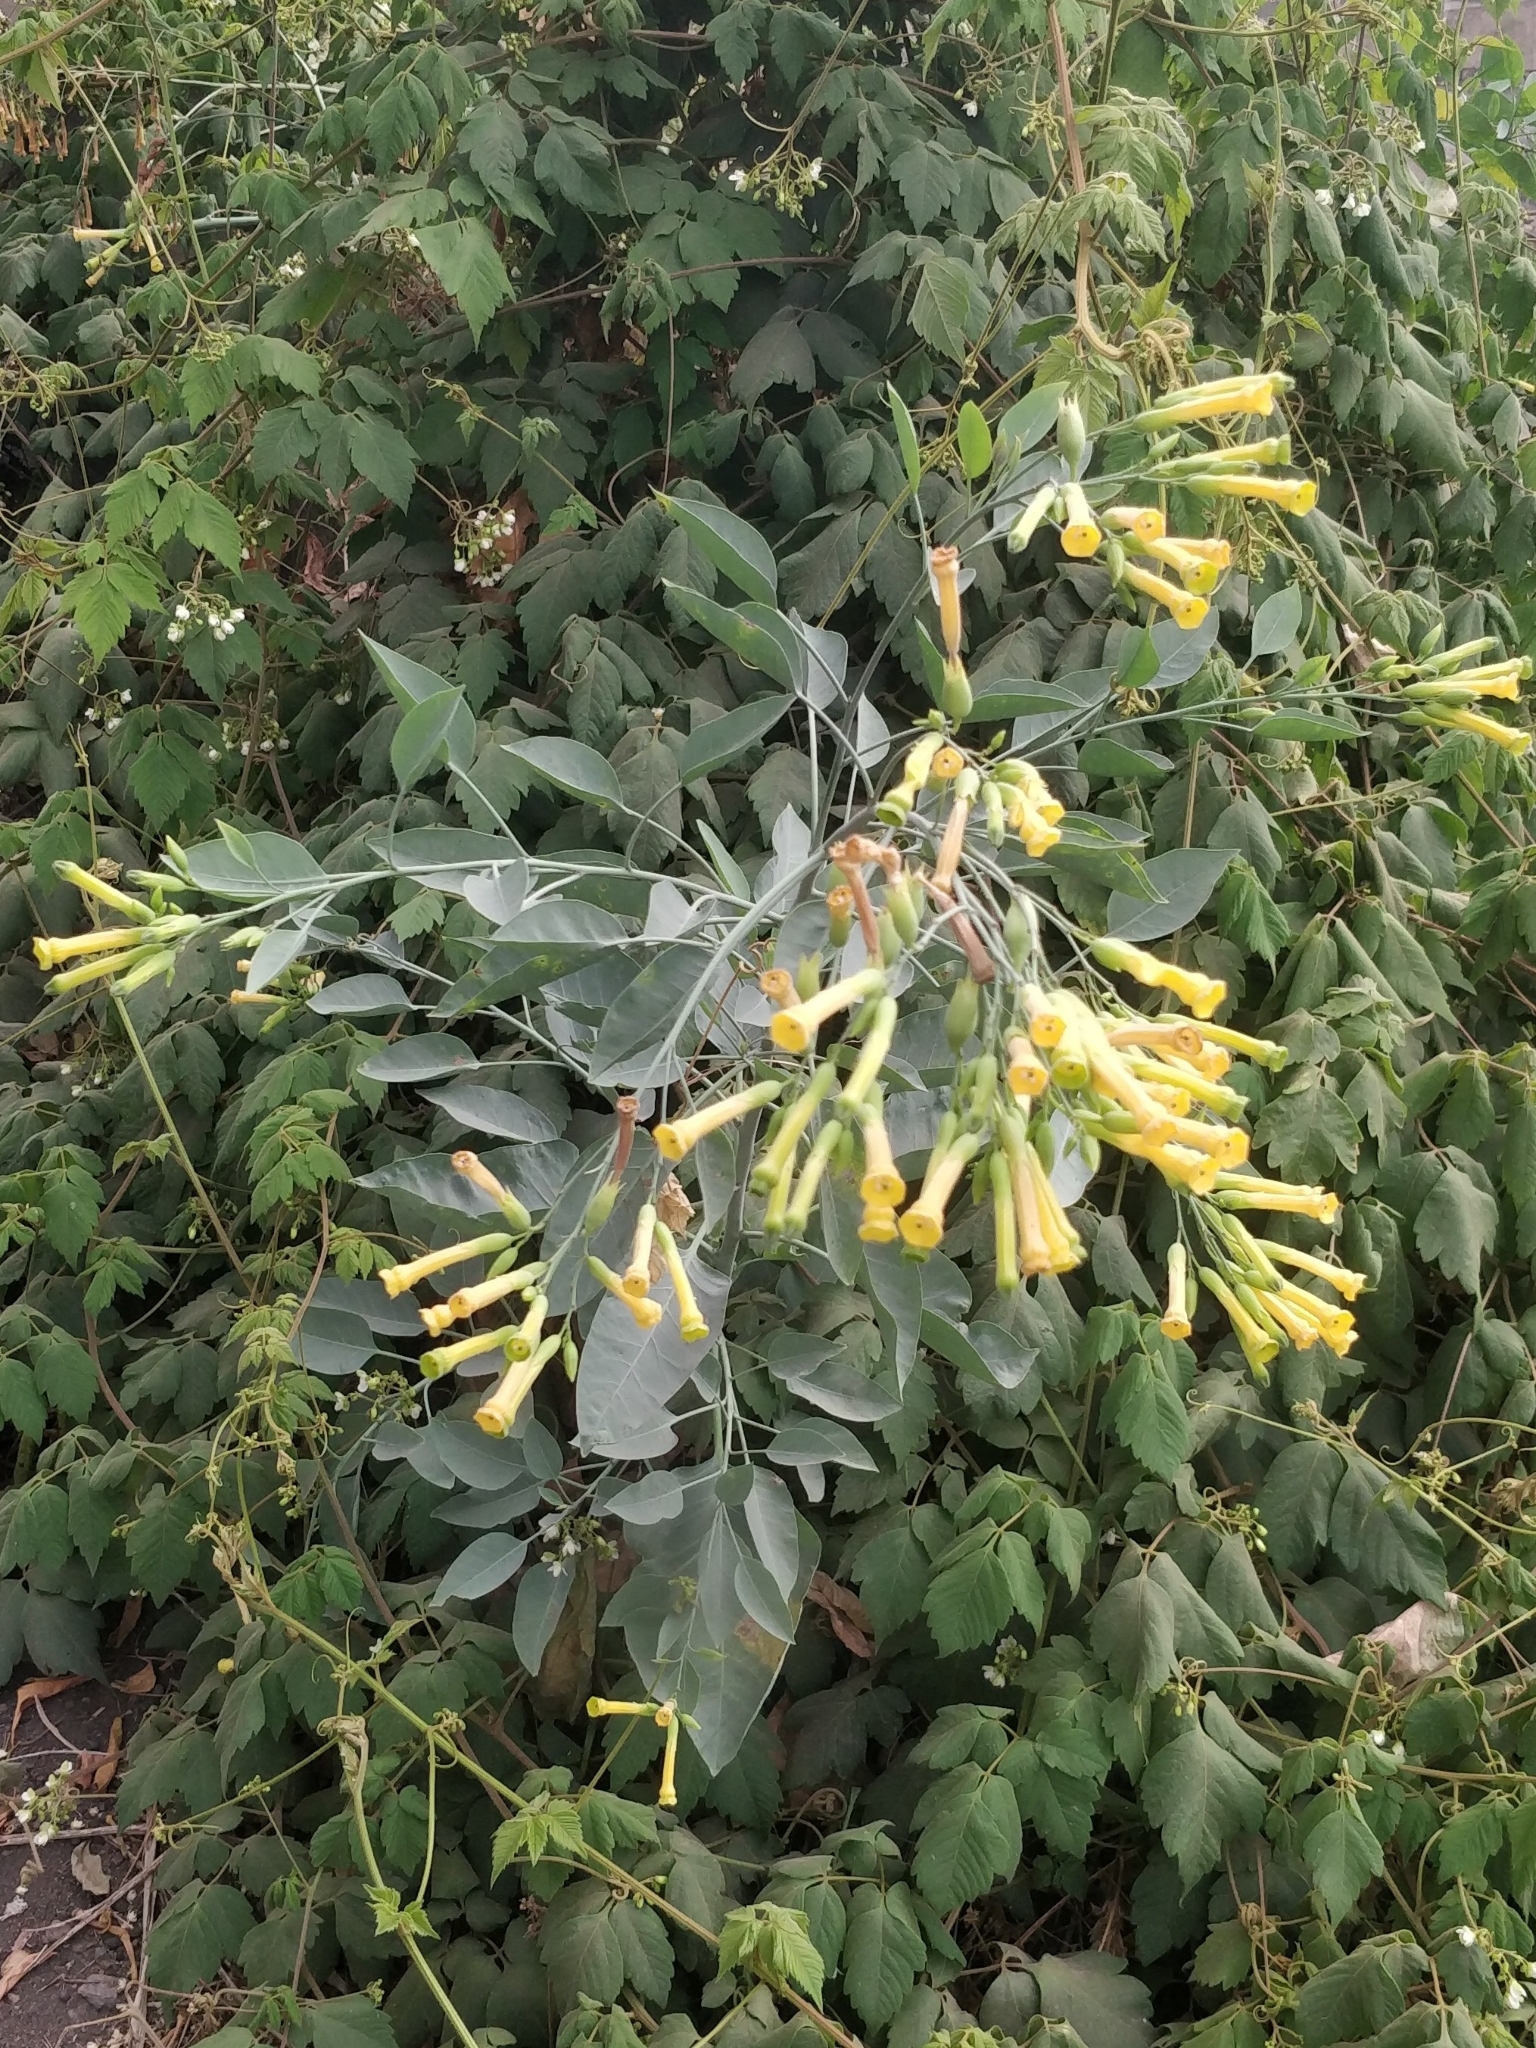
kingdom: Plantae
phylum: Tracheophyta
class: Magnoliopsida
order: Solanales
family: Solanaceae
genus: Nicotiana
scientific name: Nicotiana glauca
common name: Tree tobacco
